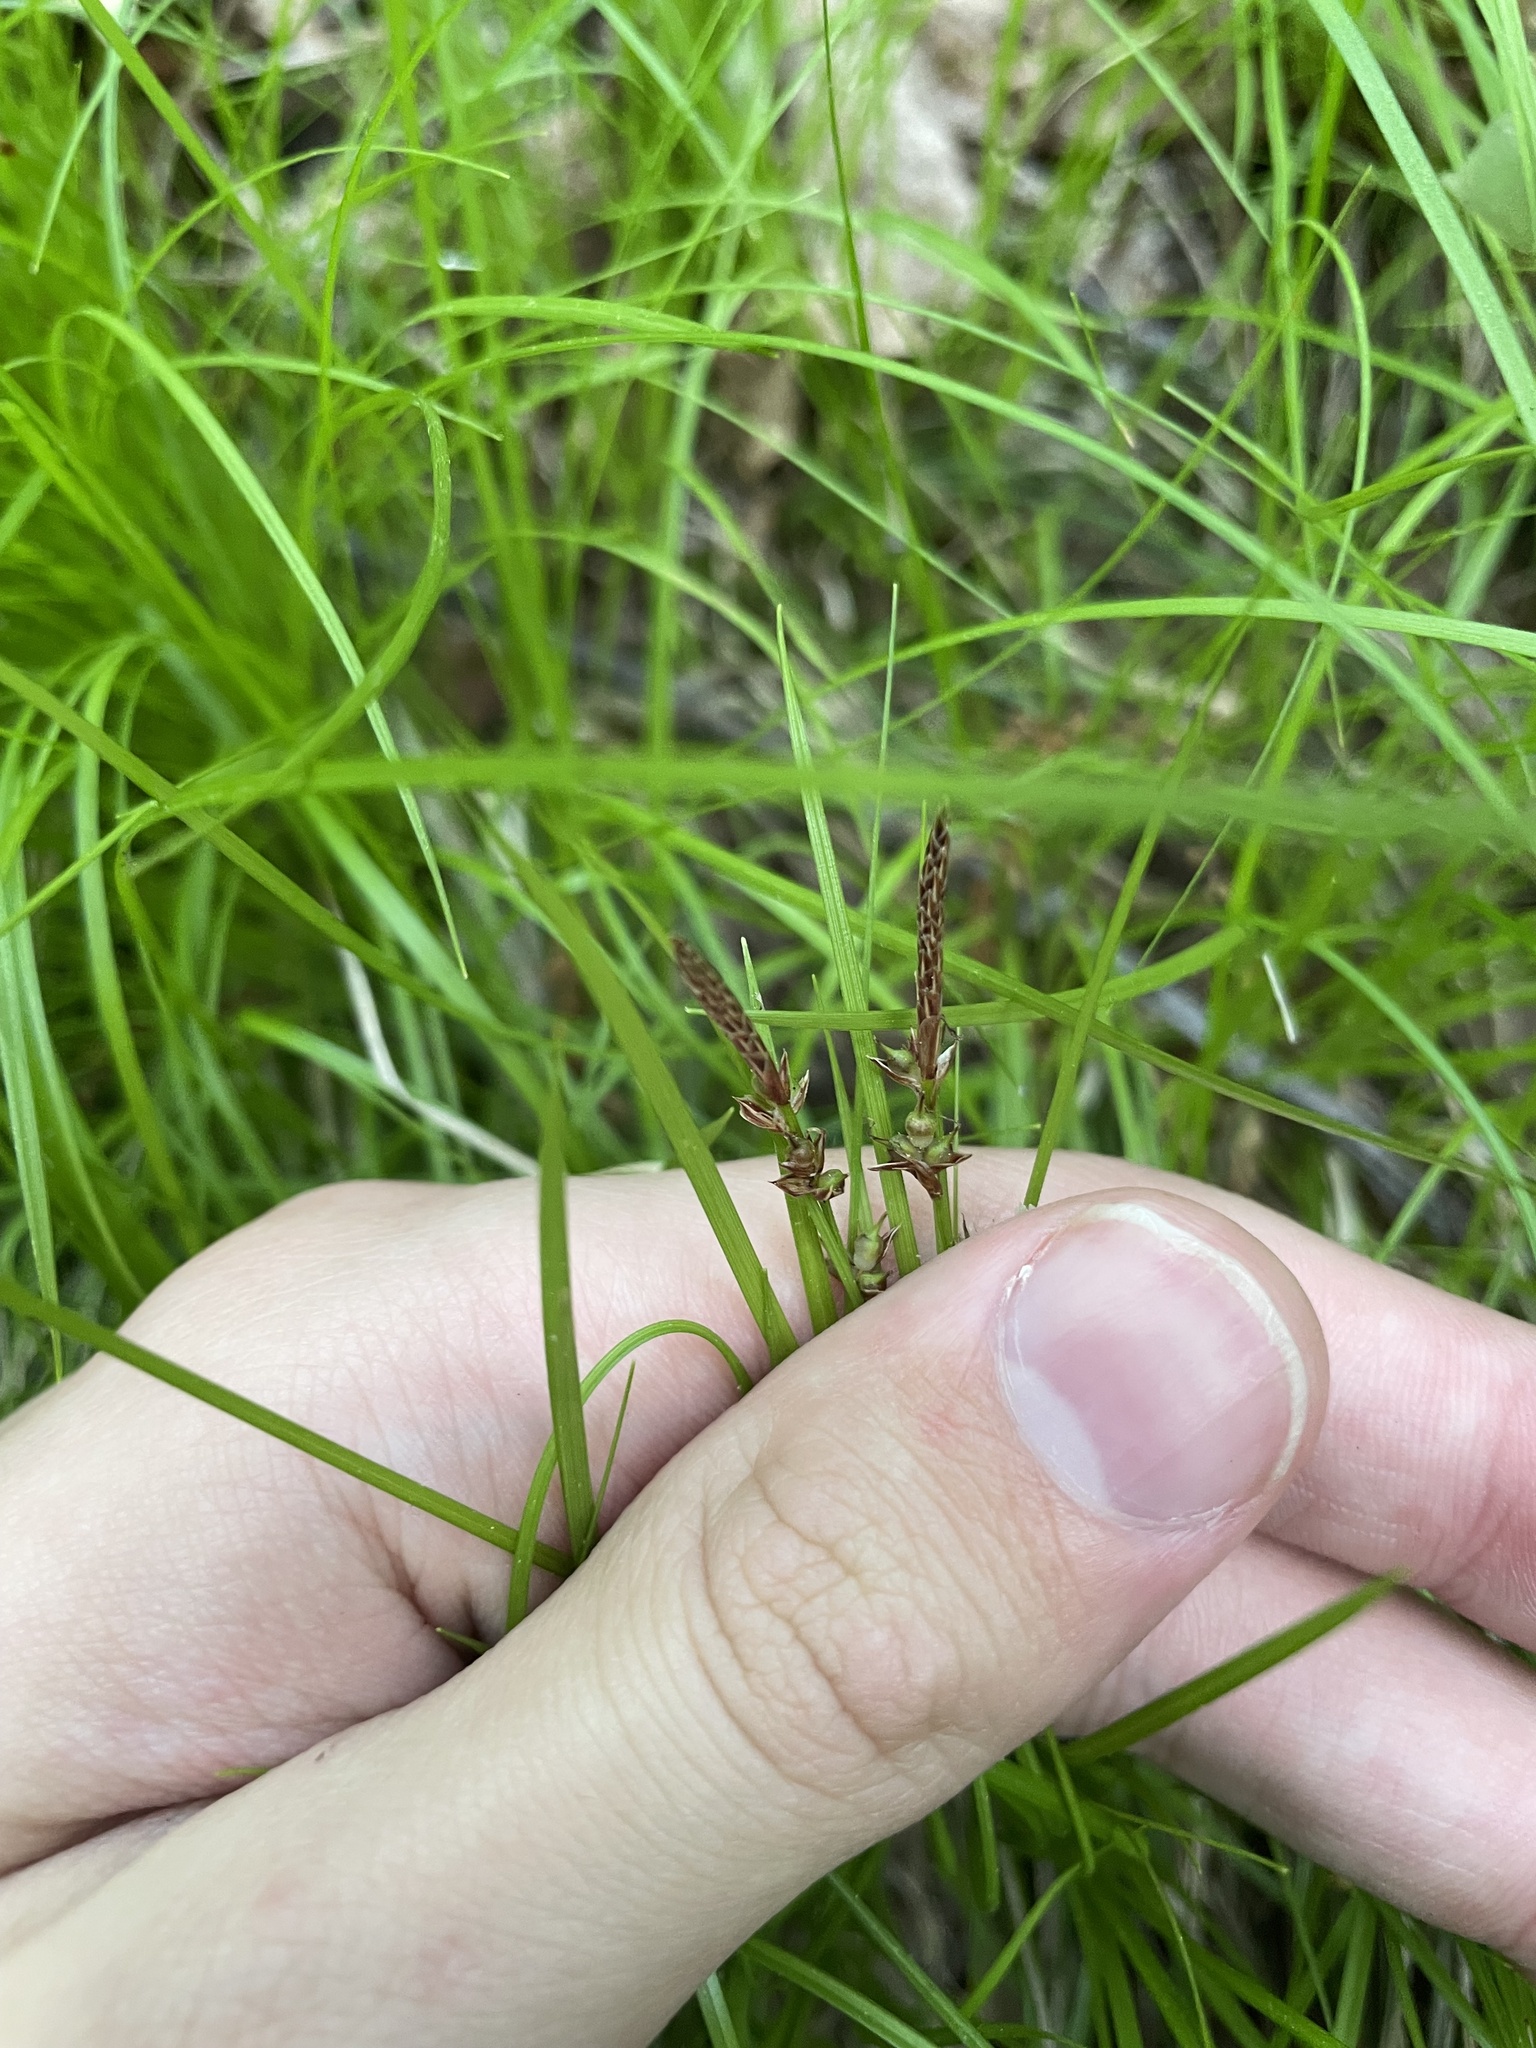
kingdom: Plantae
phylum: Tracheophyta
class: Liliopsida
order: Poales
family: Cyperaceae
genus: Carex
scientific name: Carex communis
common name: Colonial oak sedge
